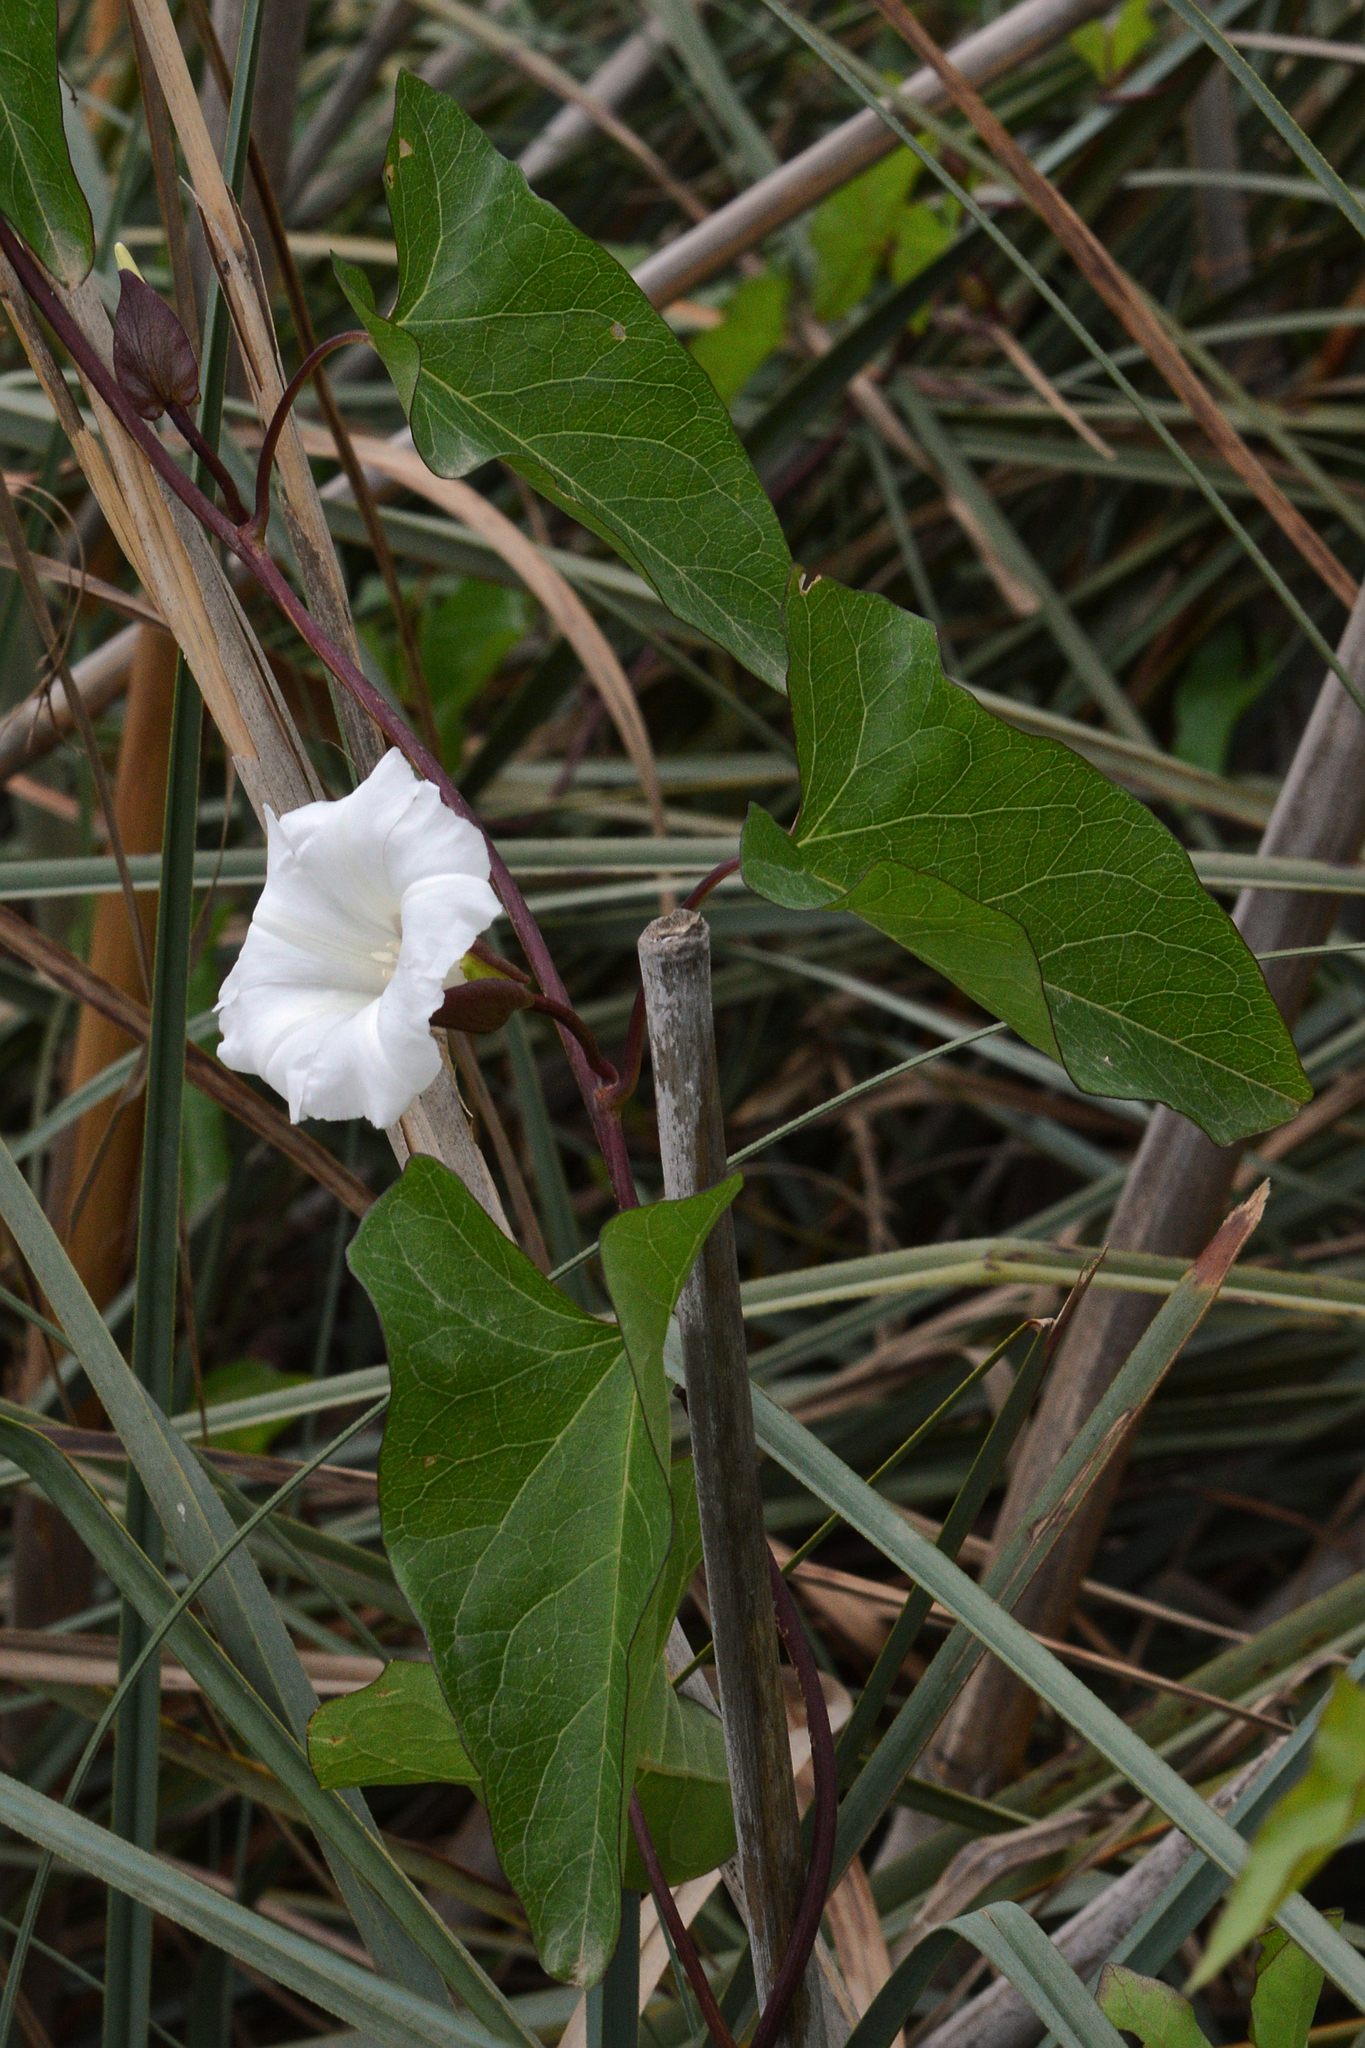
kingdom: Plantae
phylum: Tracheophyta
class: Magnoliopsida
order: Solanales
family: Convolvulaceae
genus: Calystegia
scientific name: Calystegia sepium
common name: Hedge bindweed
